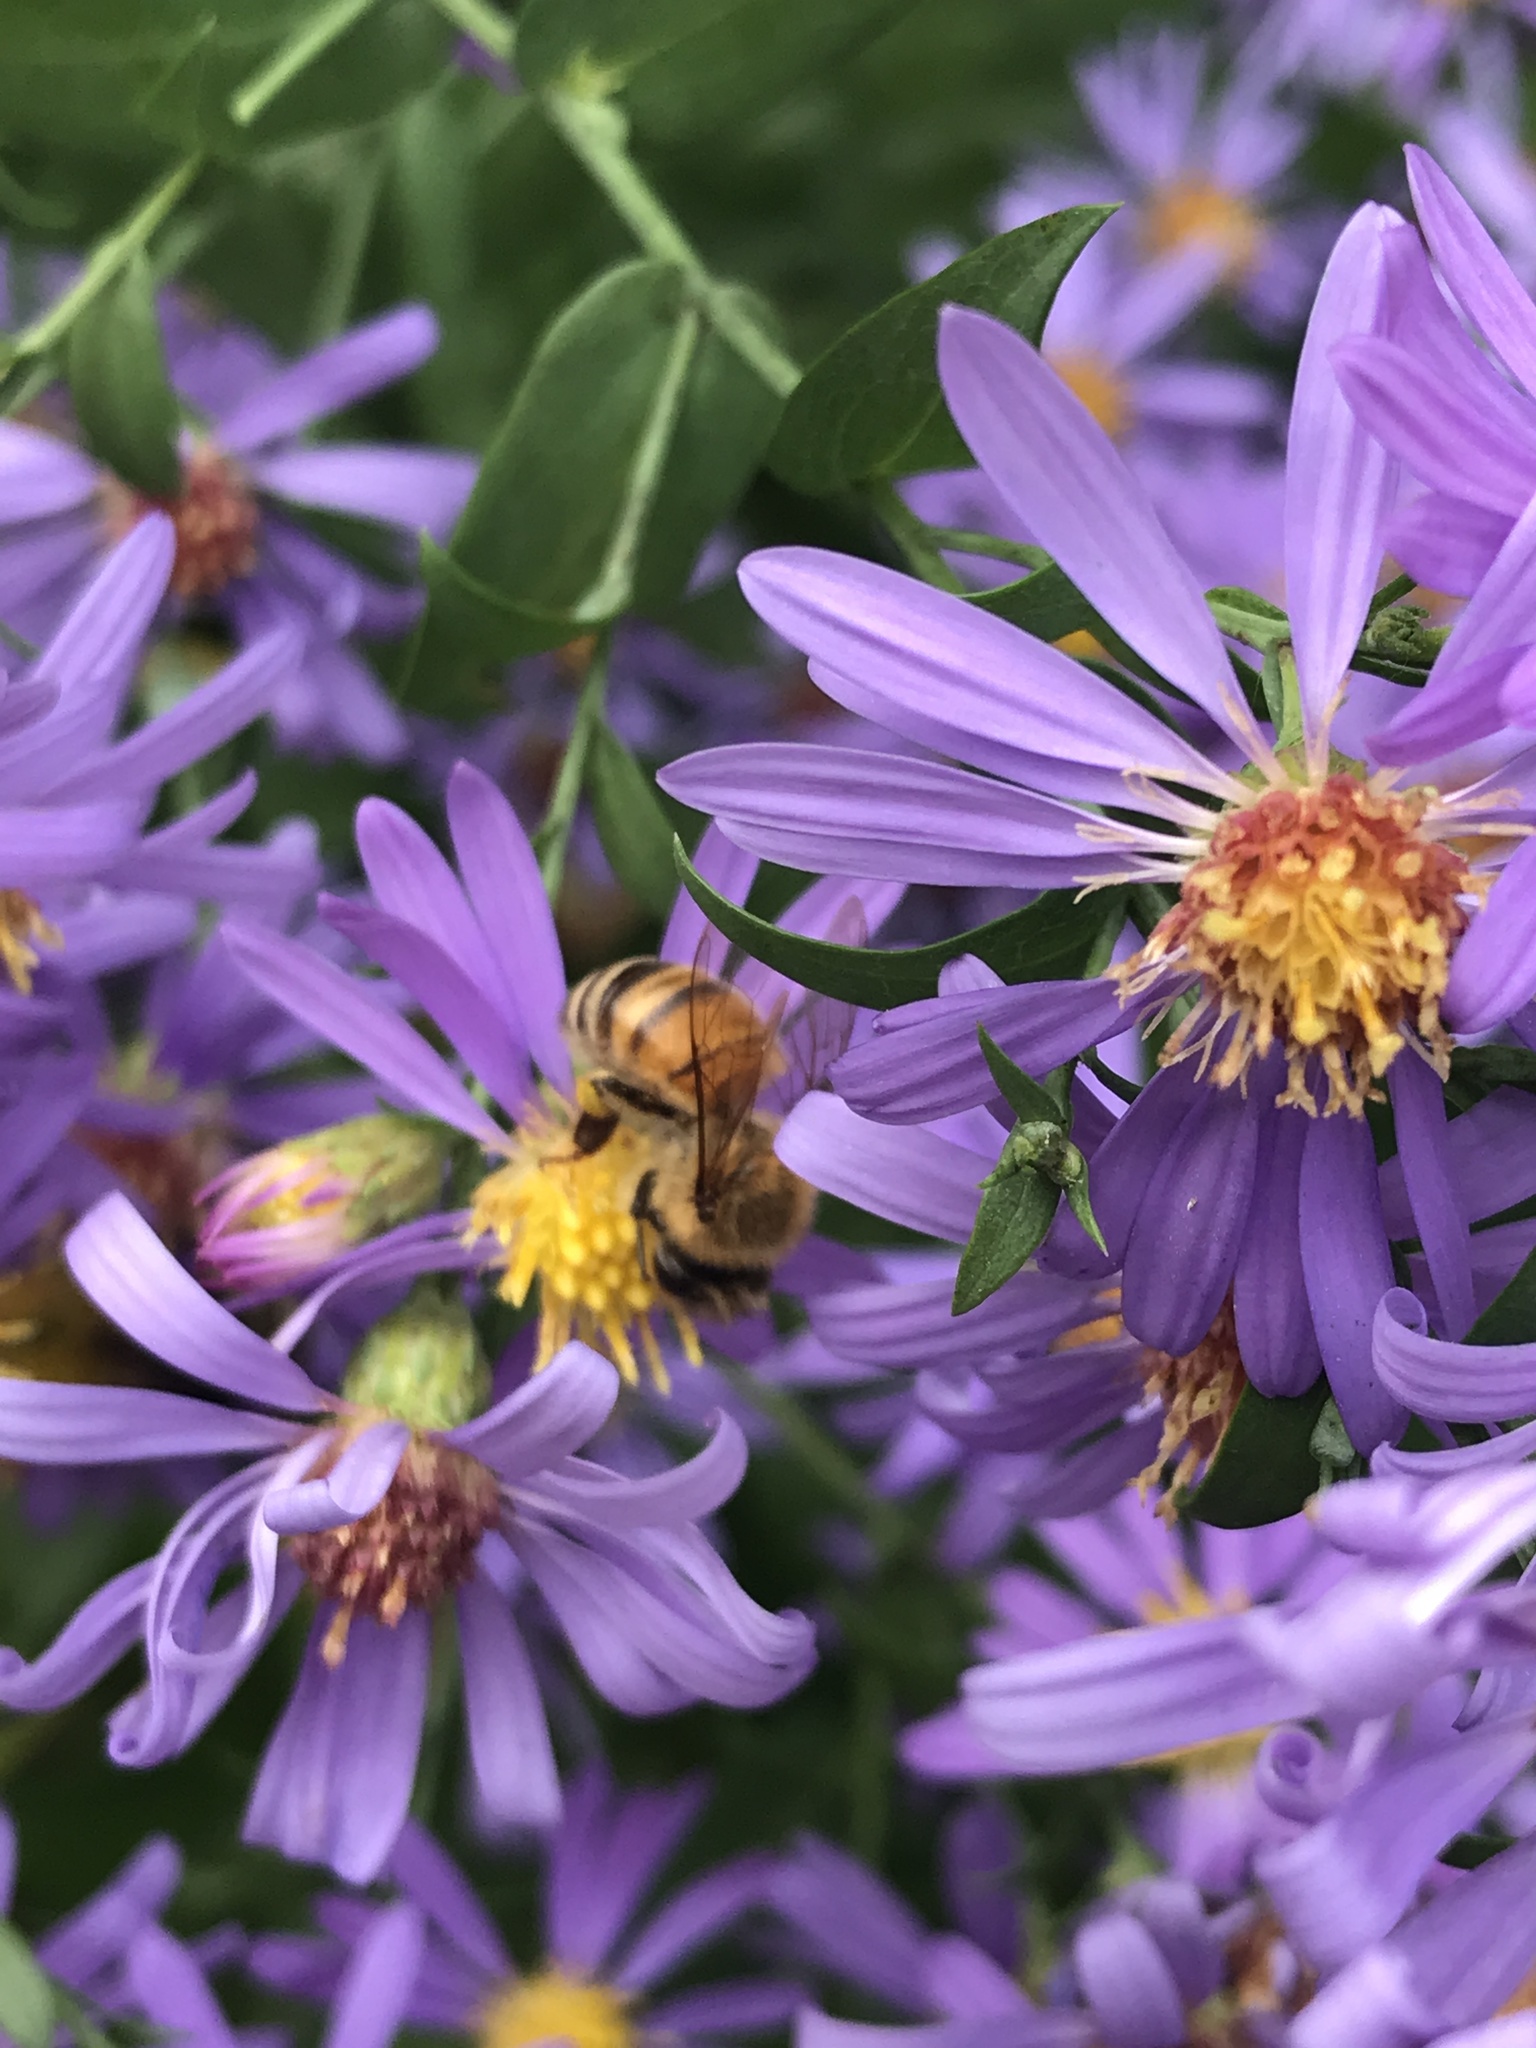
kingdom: Animalia
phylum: Arthropoda
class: Insecta
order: Hymenoptera
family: Apidae
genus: Apis
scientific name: Apis mellifera
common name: Honey bee
